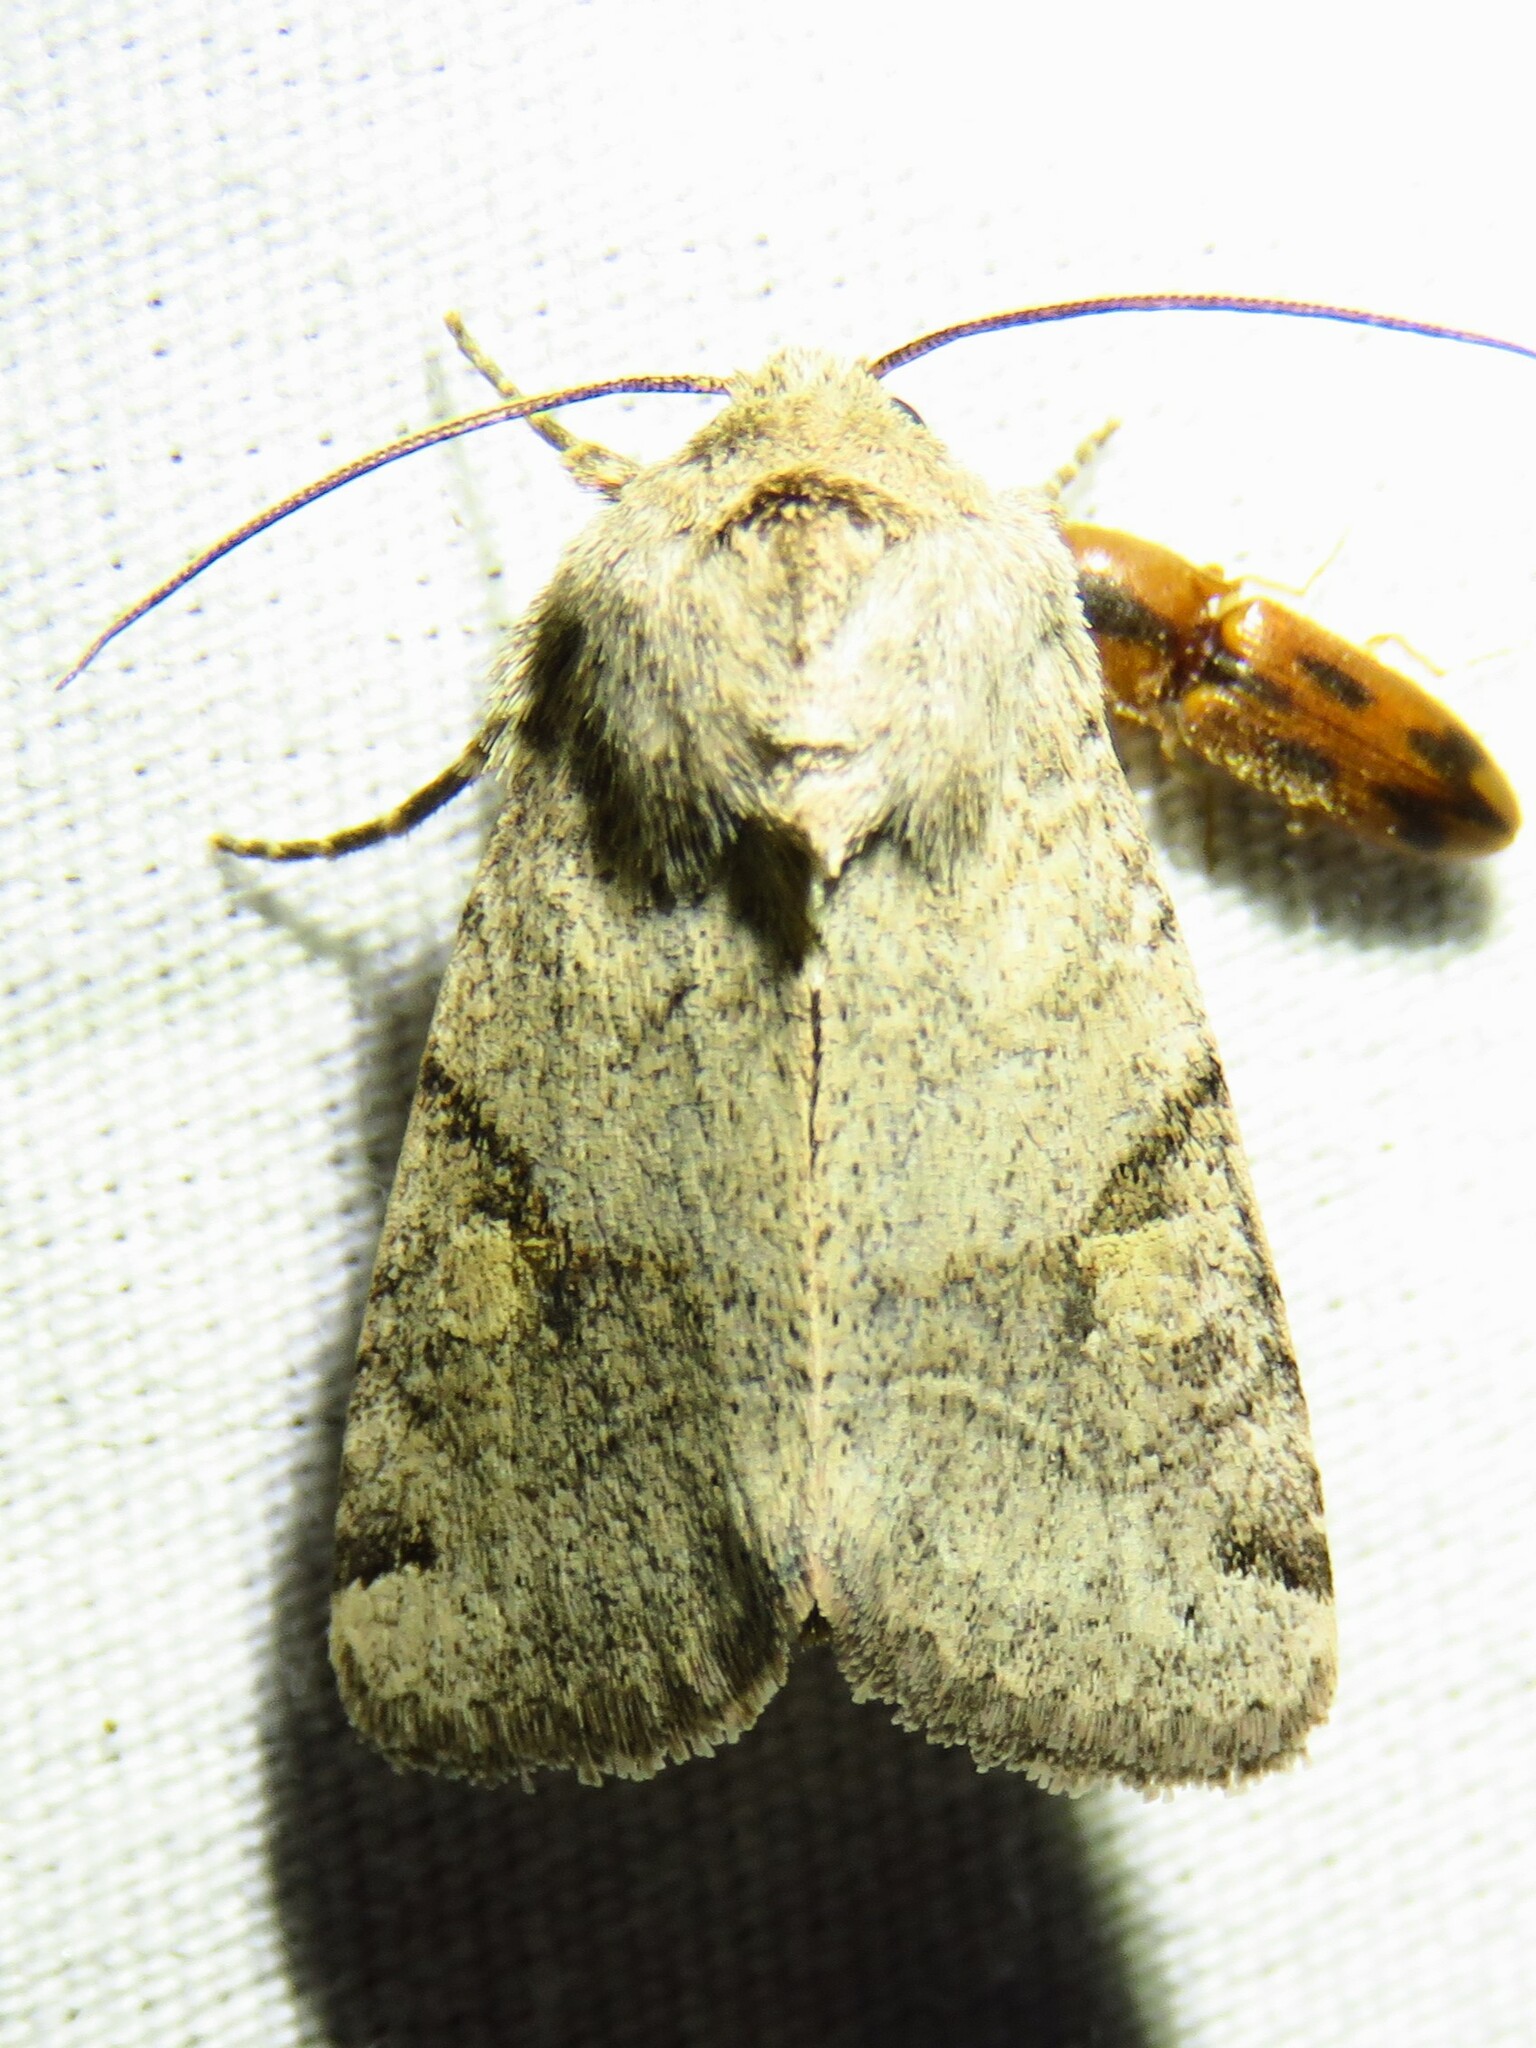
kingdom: Animalia
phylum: Arthropoda
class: Insecta
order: Lepidoptera
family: Noctuidae
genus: Ulolonche
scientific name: Ulolonche disticha
